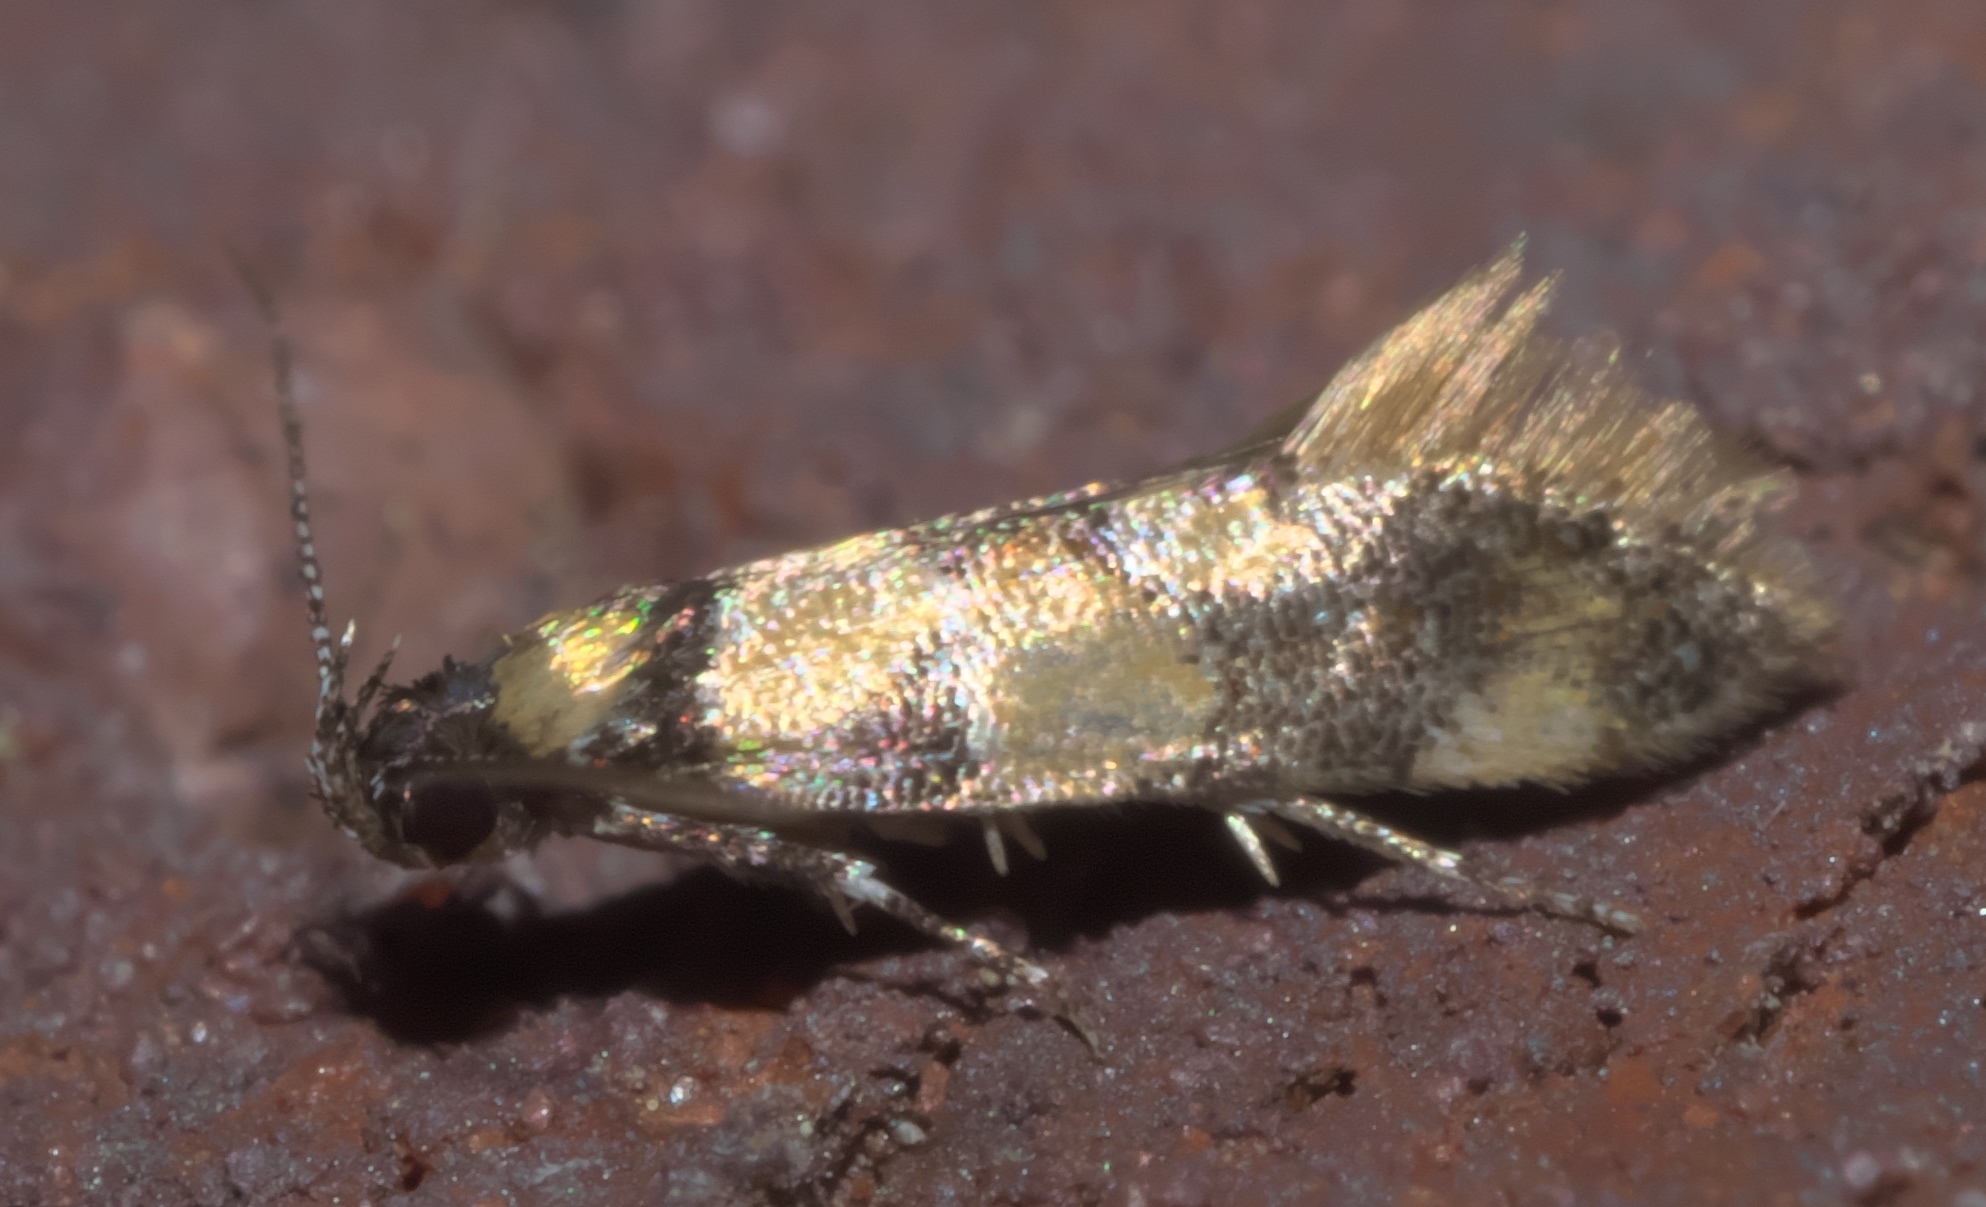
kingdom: Animalia
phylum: Arthropoda
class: Insecta
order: Lepidoptera
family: Oecophoridae
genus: Decantha
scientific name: Decantha borkhausenii
